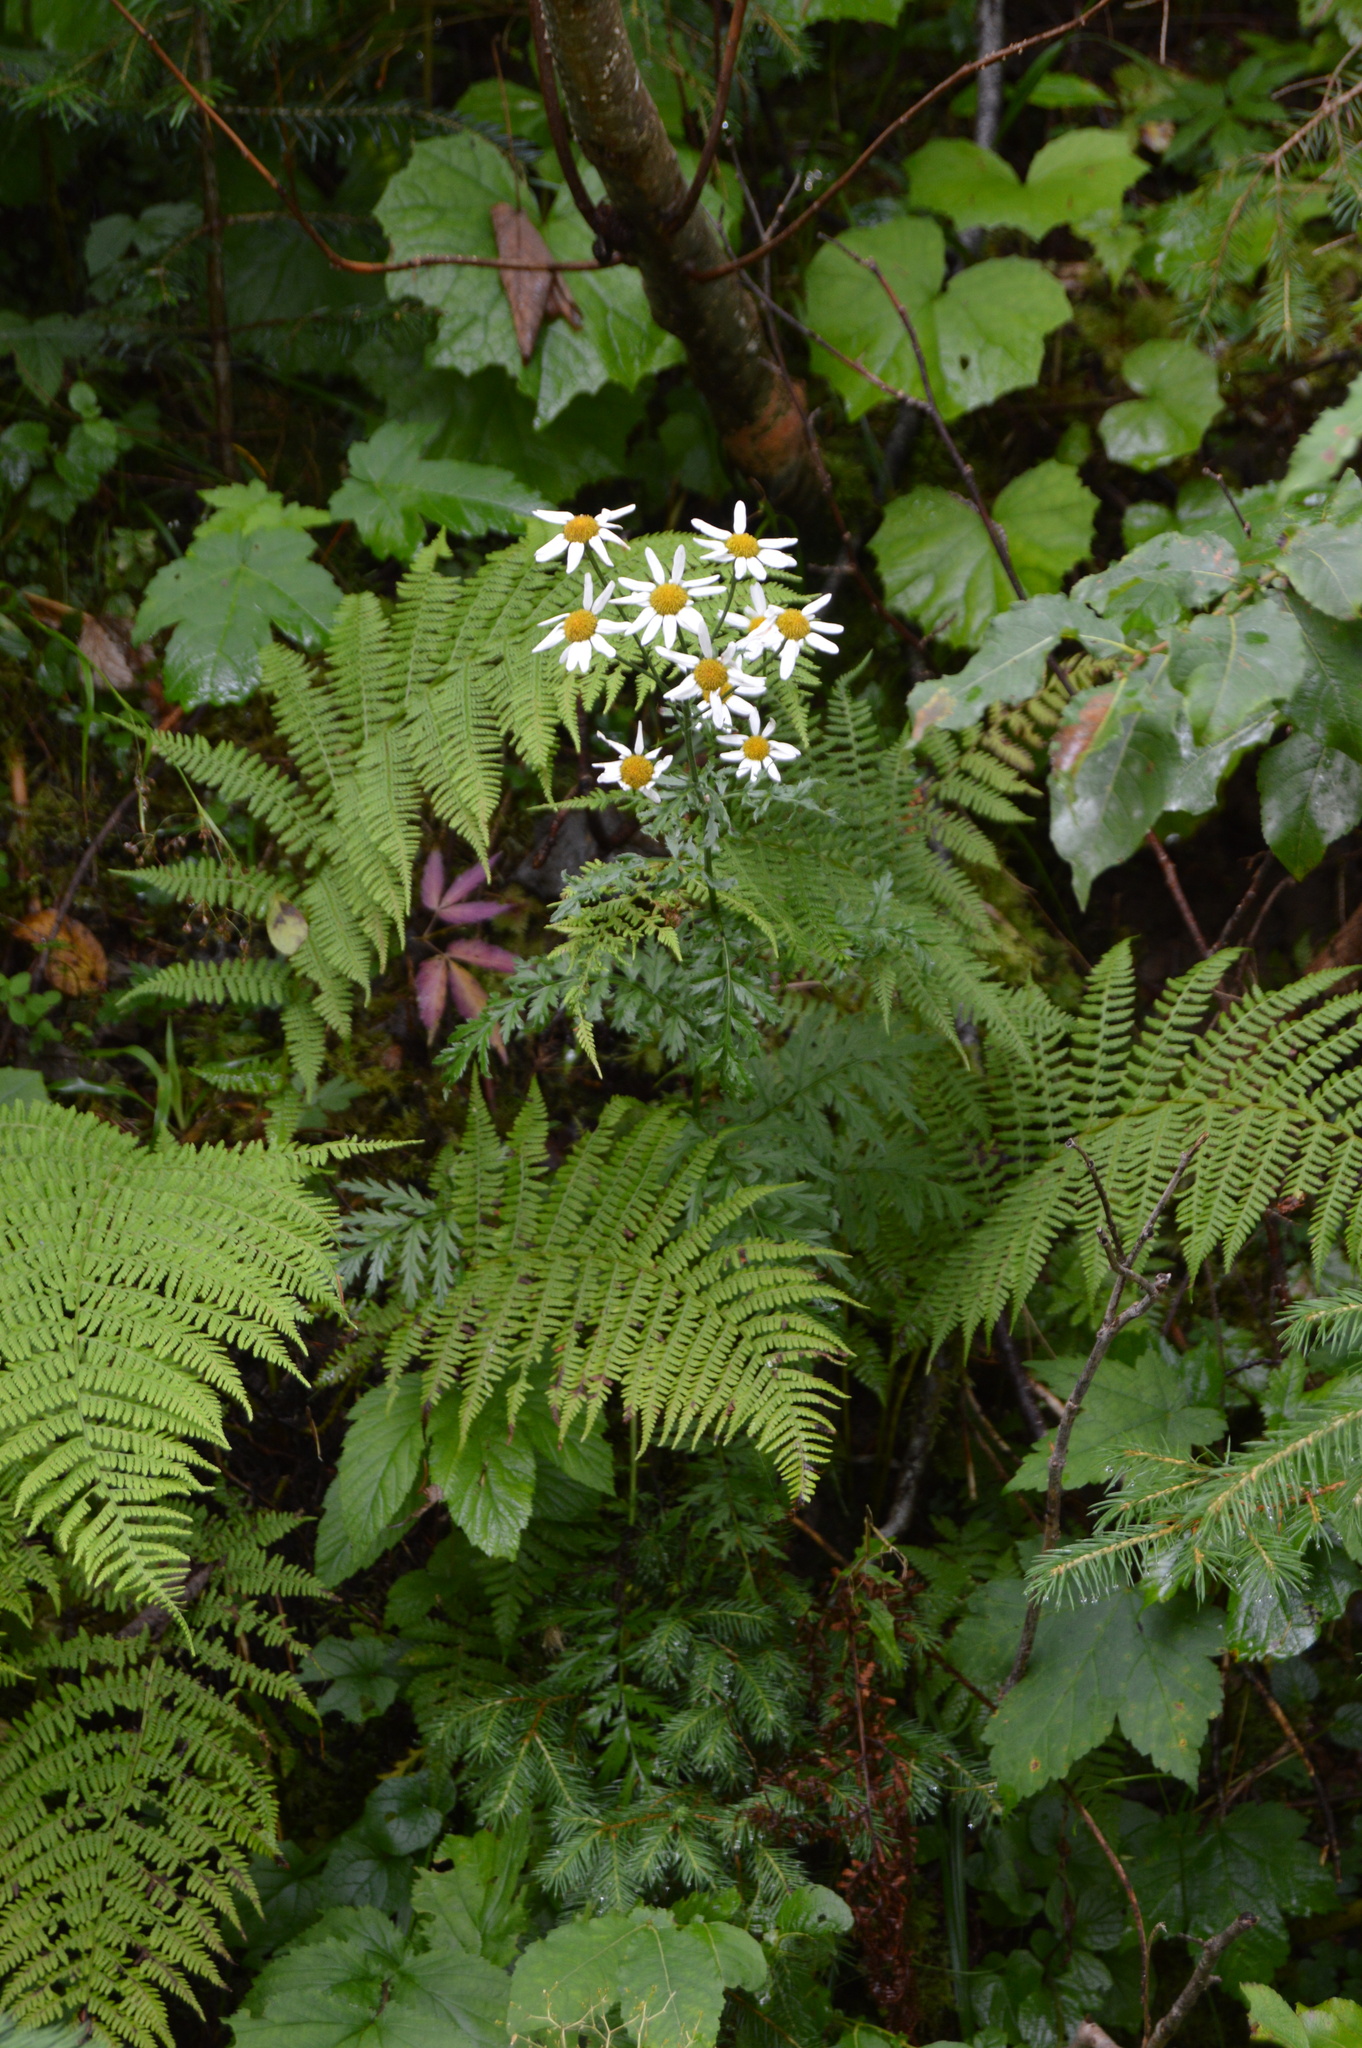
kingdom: Plantae
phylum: Tracheophyta
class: Magnoliopsida
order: Asterales
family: Asteraceae
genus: Tanacetum
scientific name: Tanacetum corymbosum
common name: Scentless feverfew
